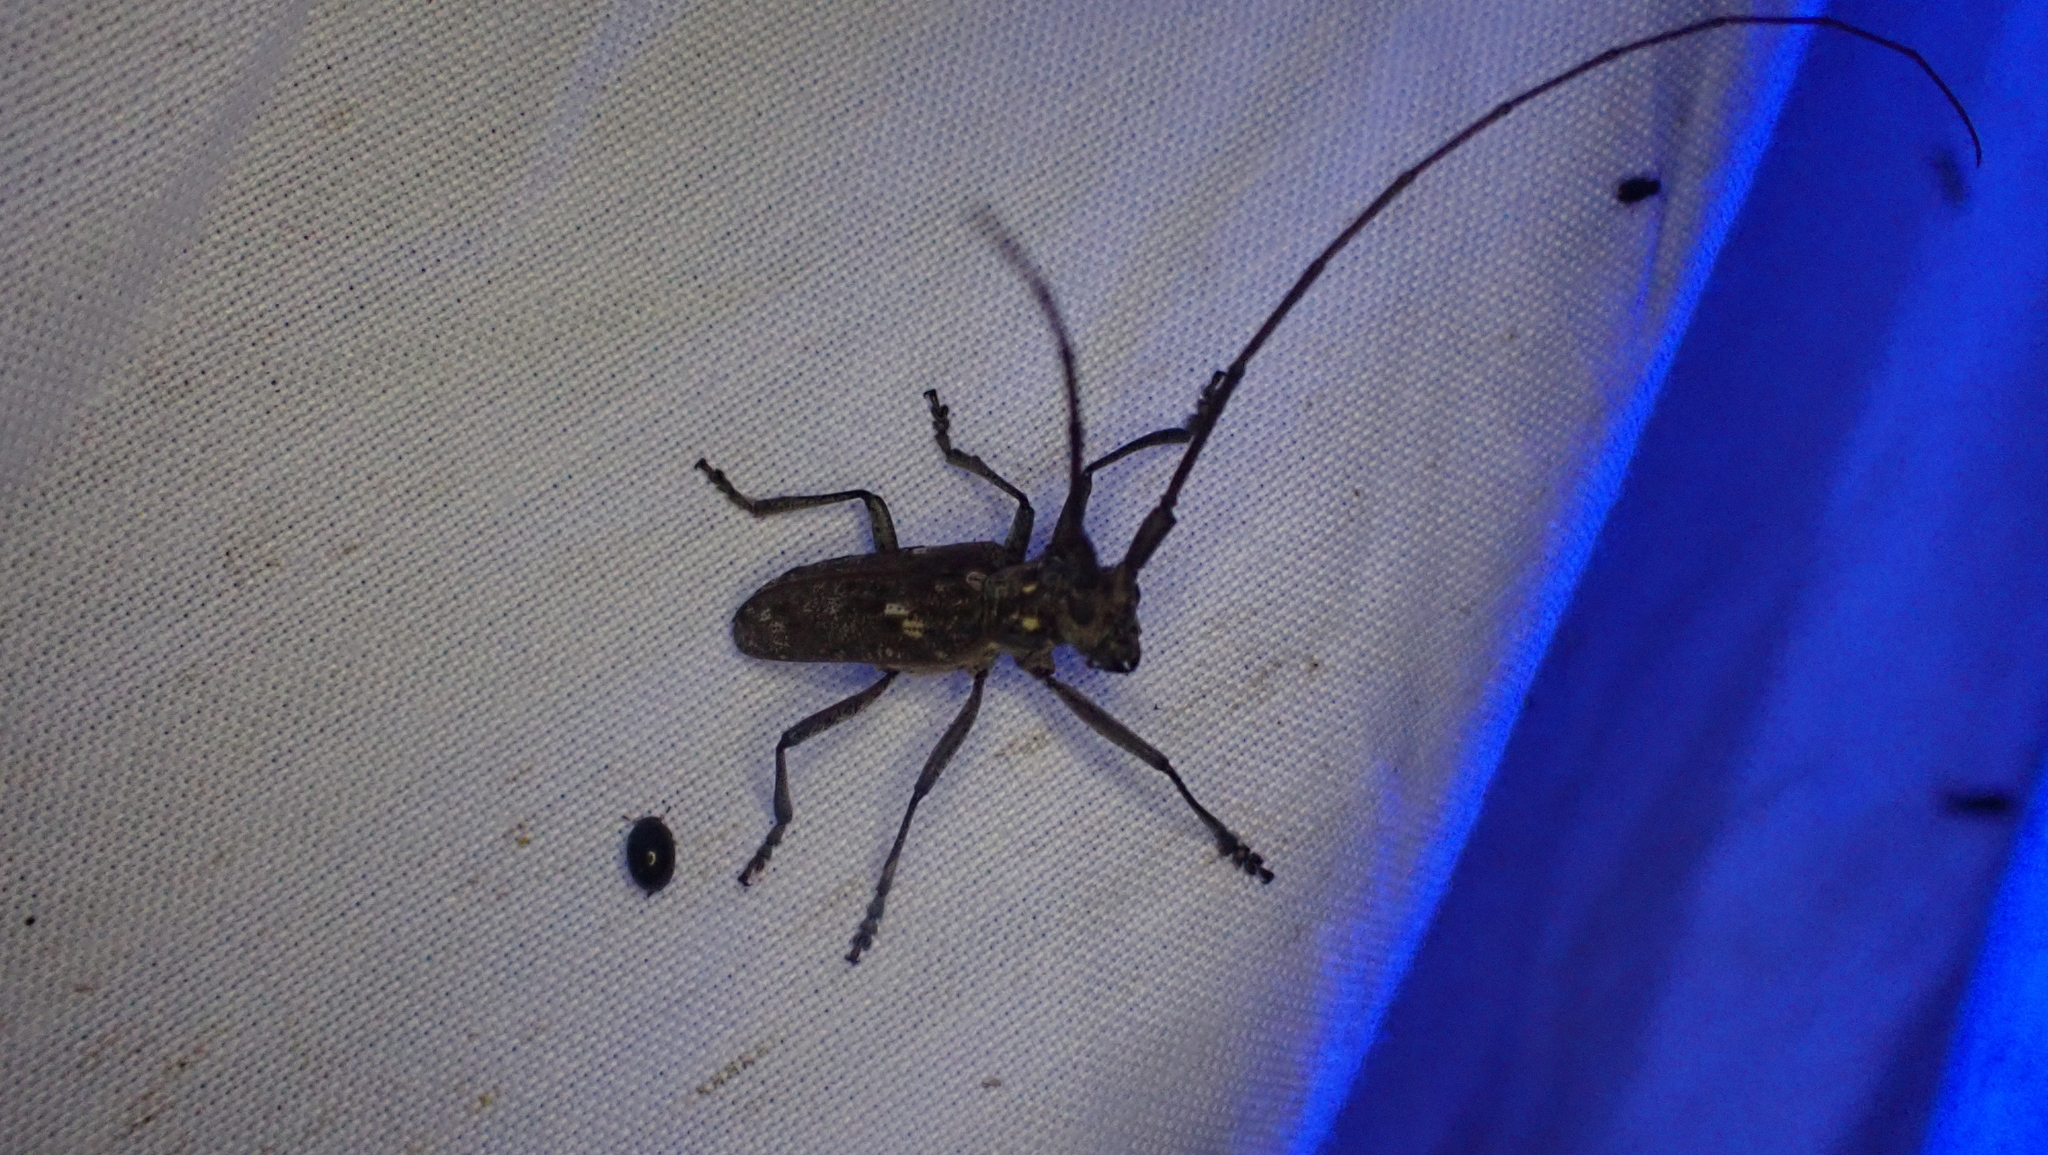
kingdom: Animalia
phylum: Arthropoda
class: Insecta
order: Coleoptera
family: Cerambycidae
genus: Monochamus
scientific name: Monochamus carolinensis
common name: Carolina pine sawyer
